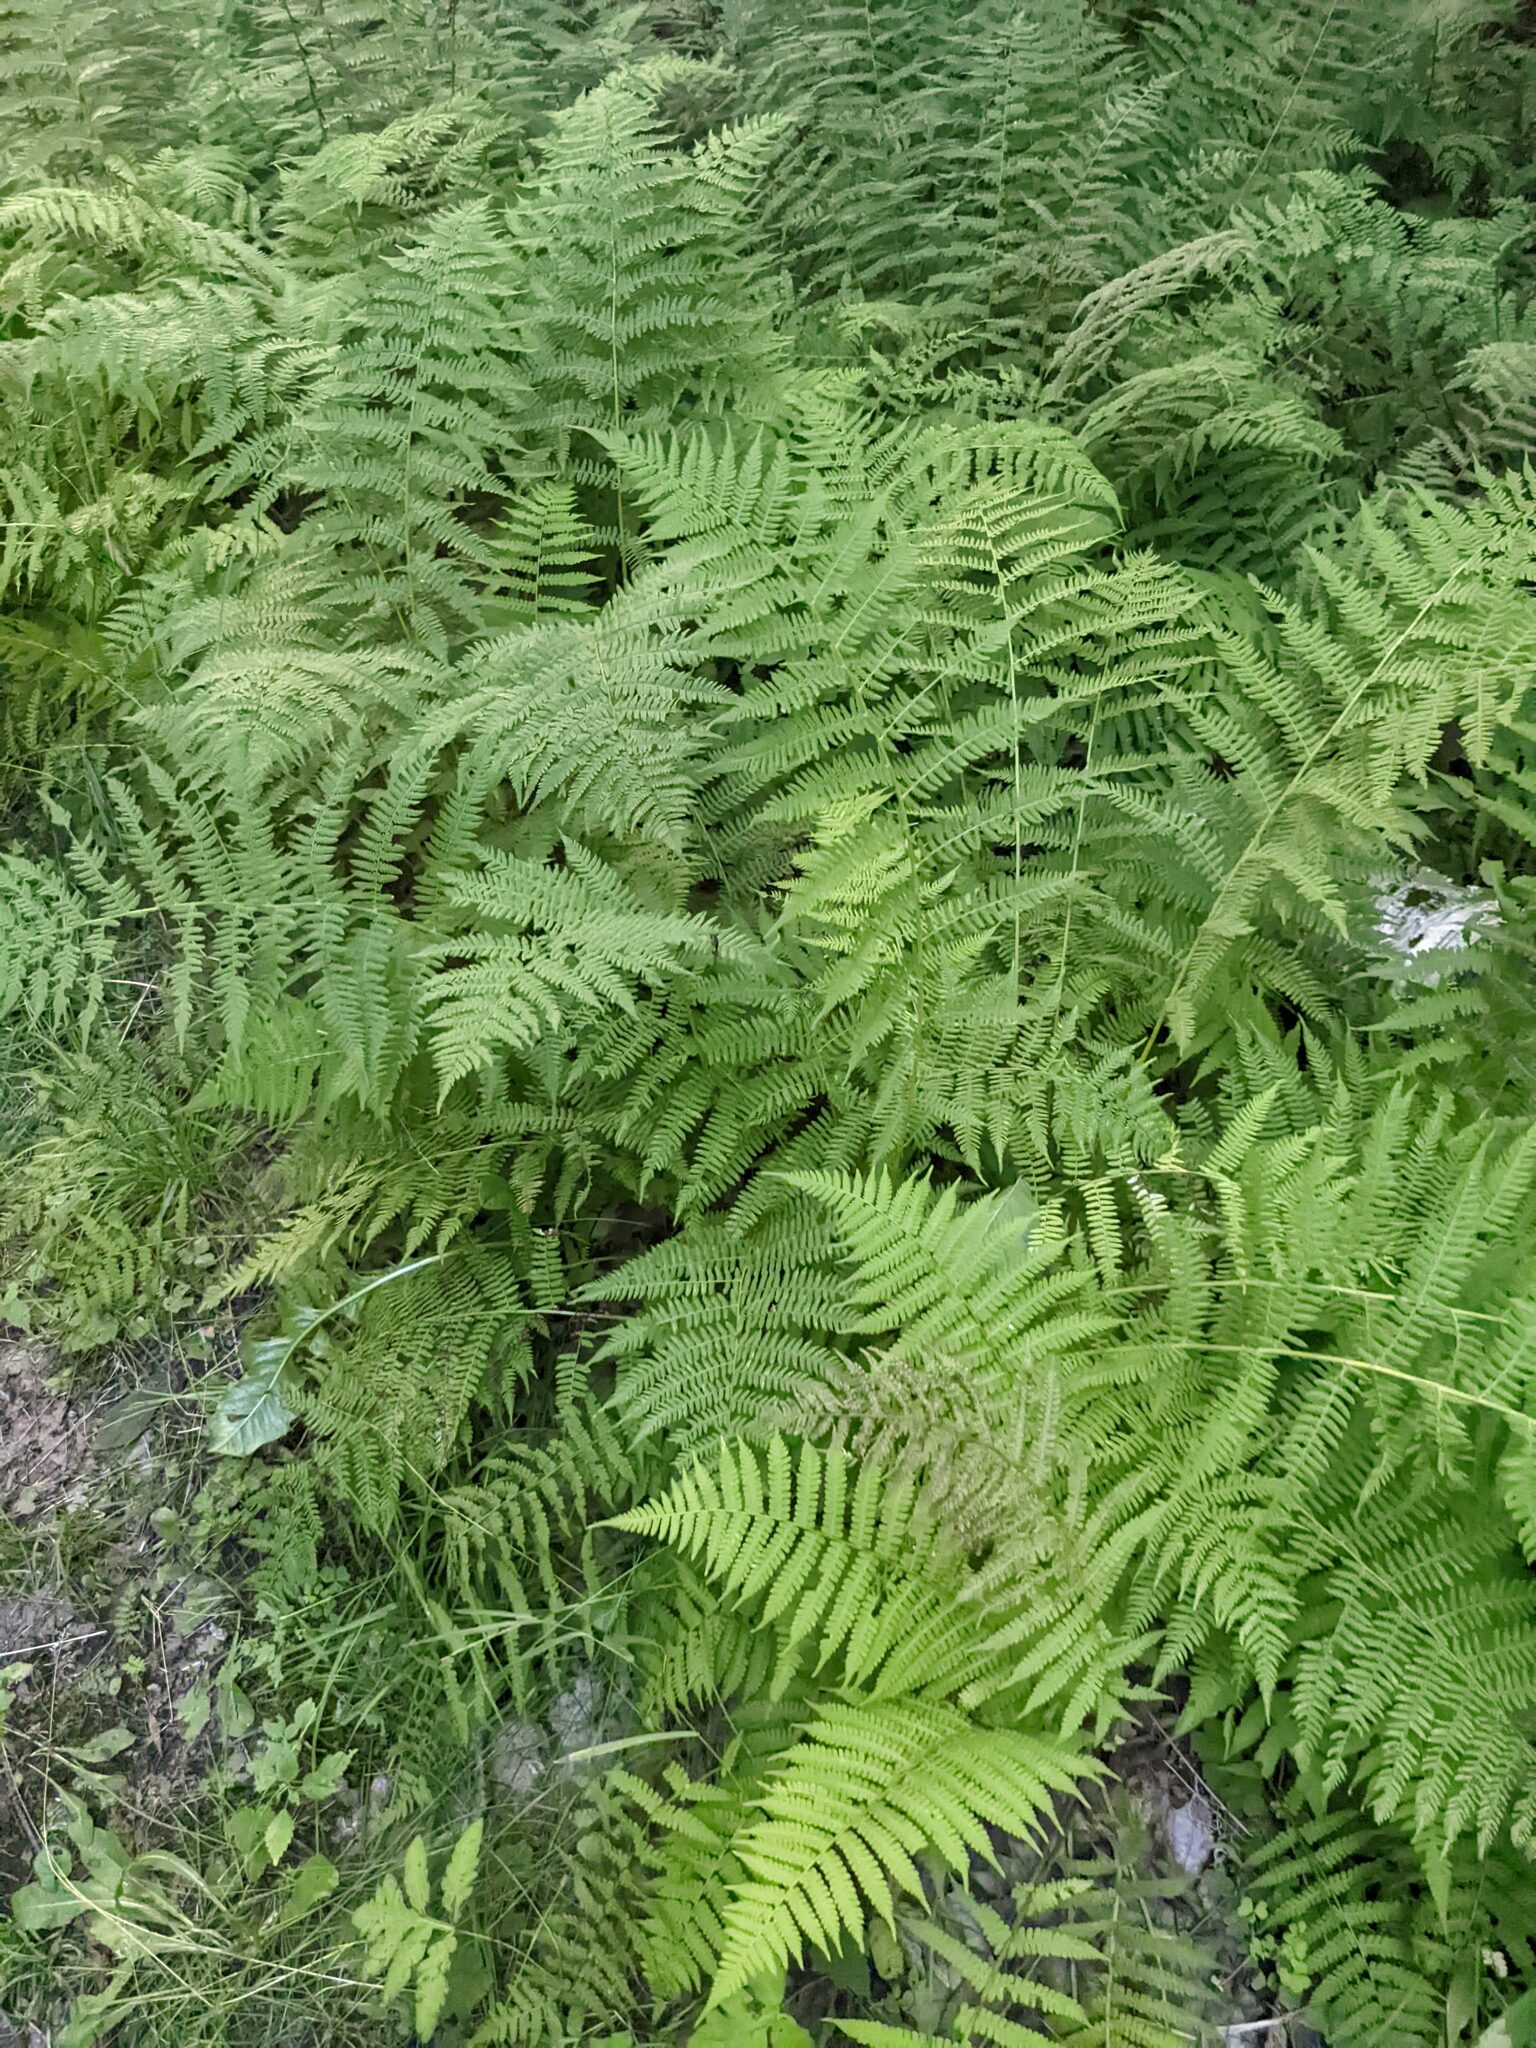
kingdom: Plantae
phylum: Tracheophyta
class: Polypodiopsida
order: Polypodiales
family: Athyriaceae
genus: Athyrium
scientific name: Athyrium angustum
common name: Northern lady fern
